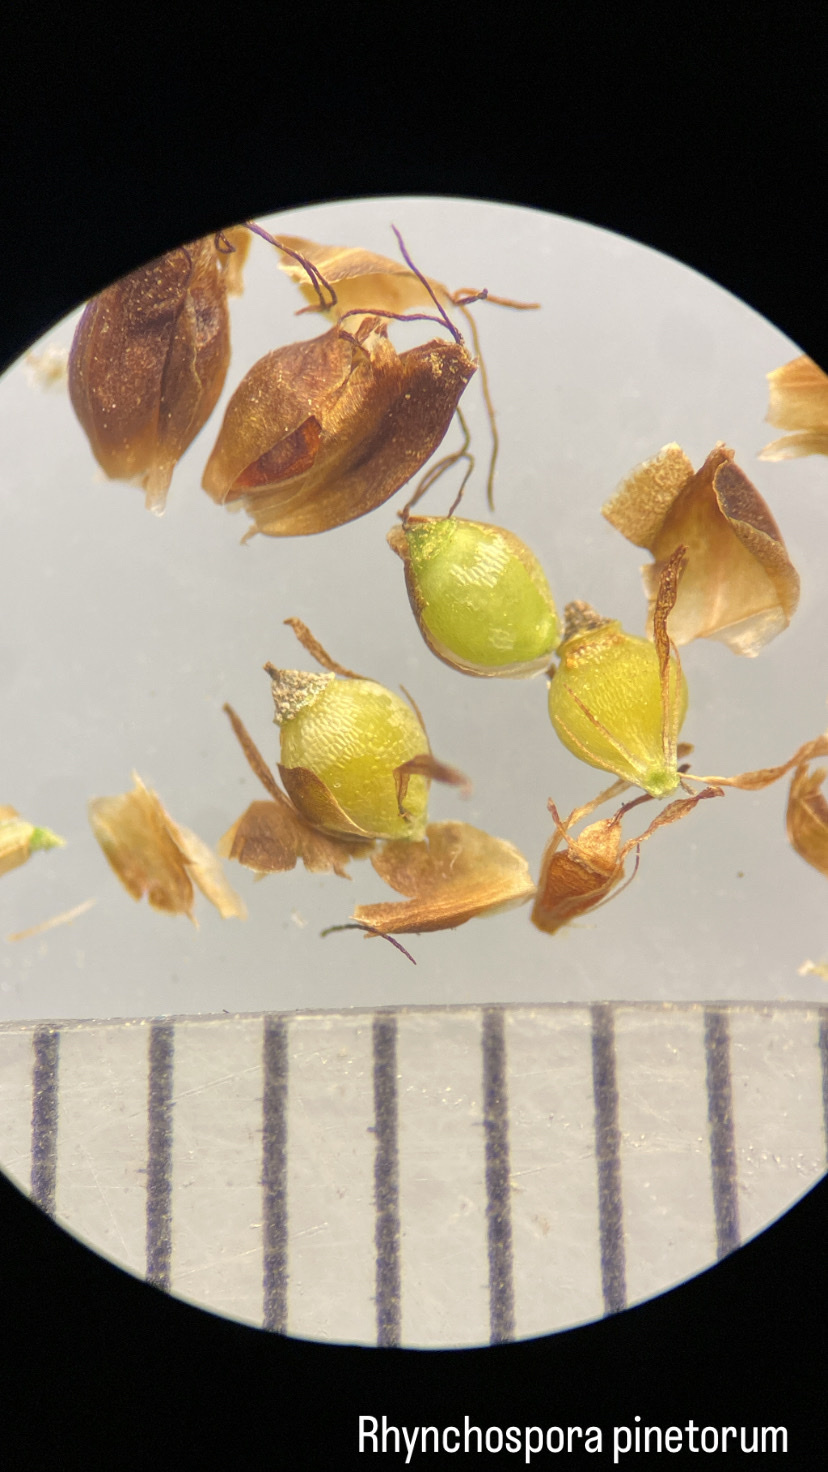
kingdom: Plantae
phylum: Tracheophyta
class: Liliopsida
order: Poales
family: Cyperaceae
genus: Rhynchospora
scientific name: Rhynchospora globularis
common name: Globe beaksedge
